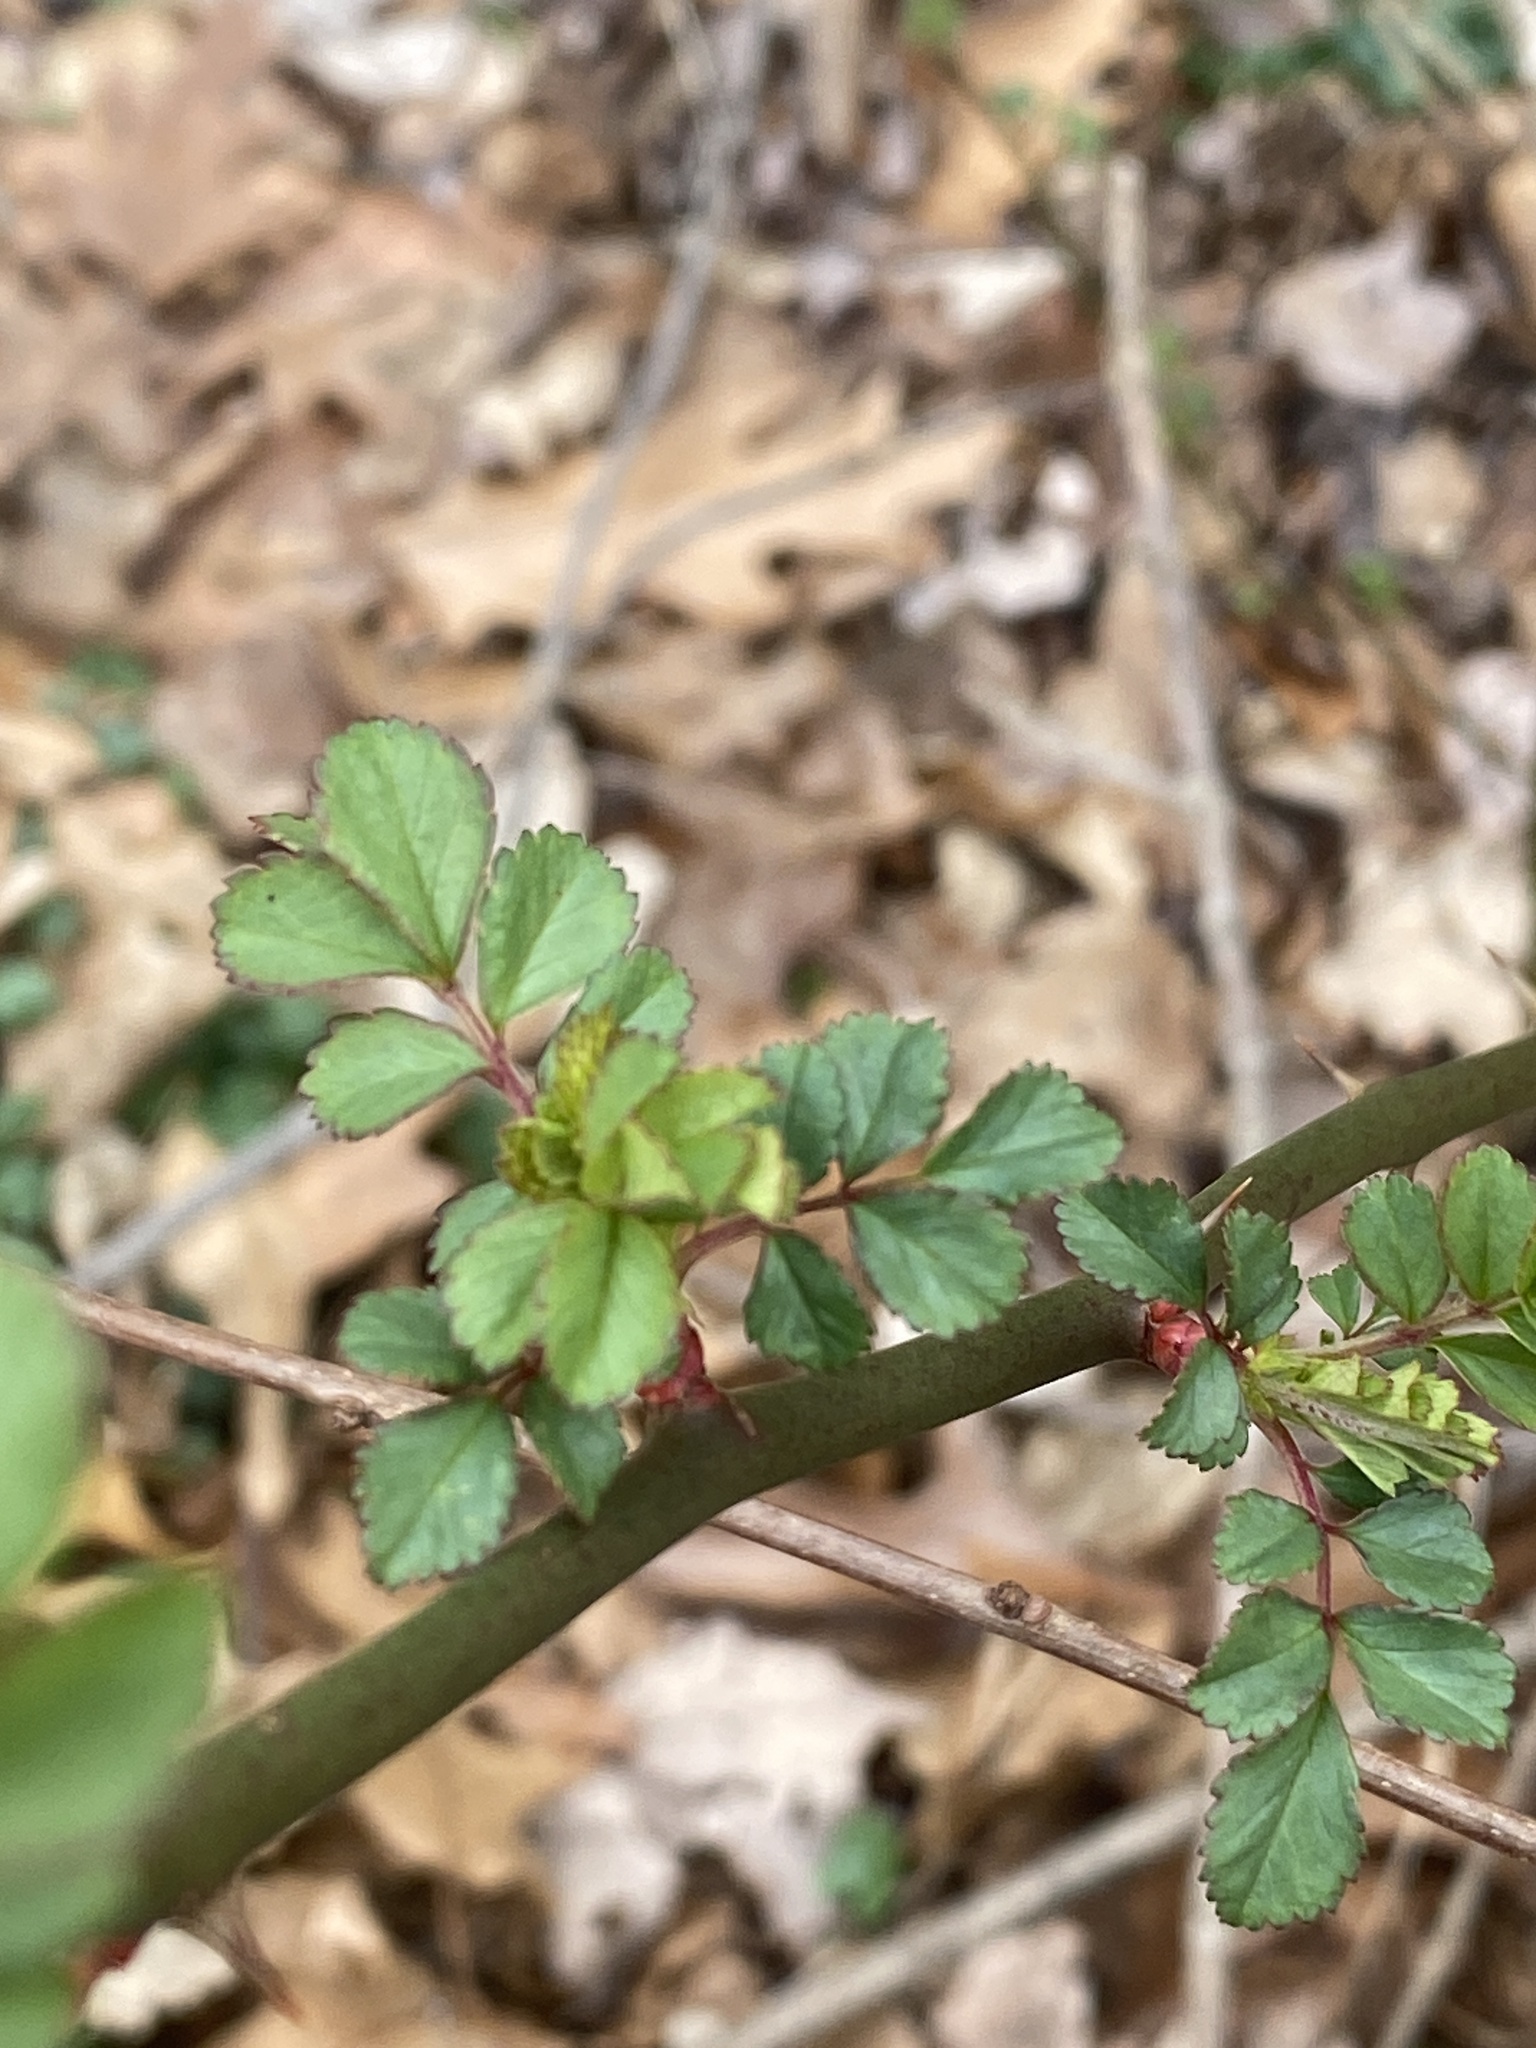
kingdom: Plantae
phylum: Tracheophyta
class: Magnoliopsida
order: Rosales
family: Rosaceae
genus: Rosa
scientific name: Rosa multiflora
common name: Multiflora rose
